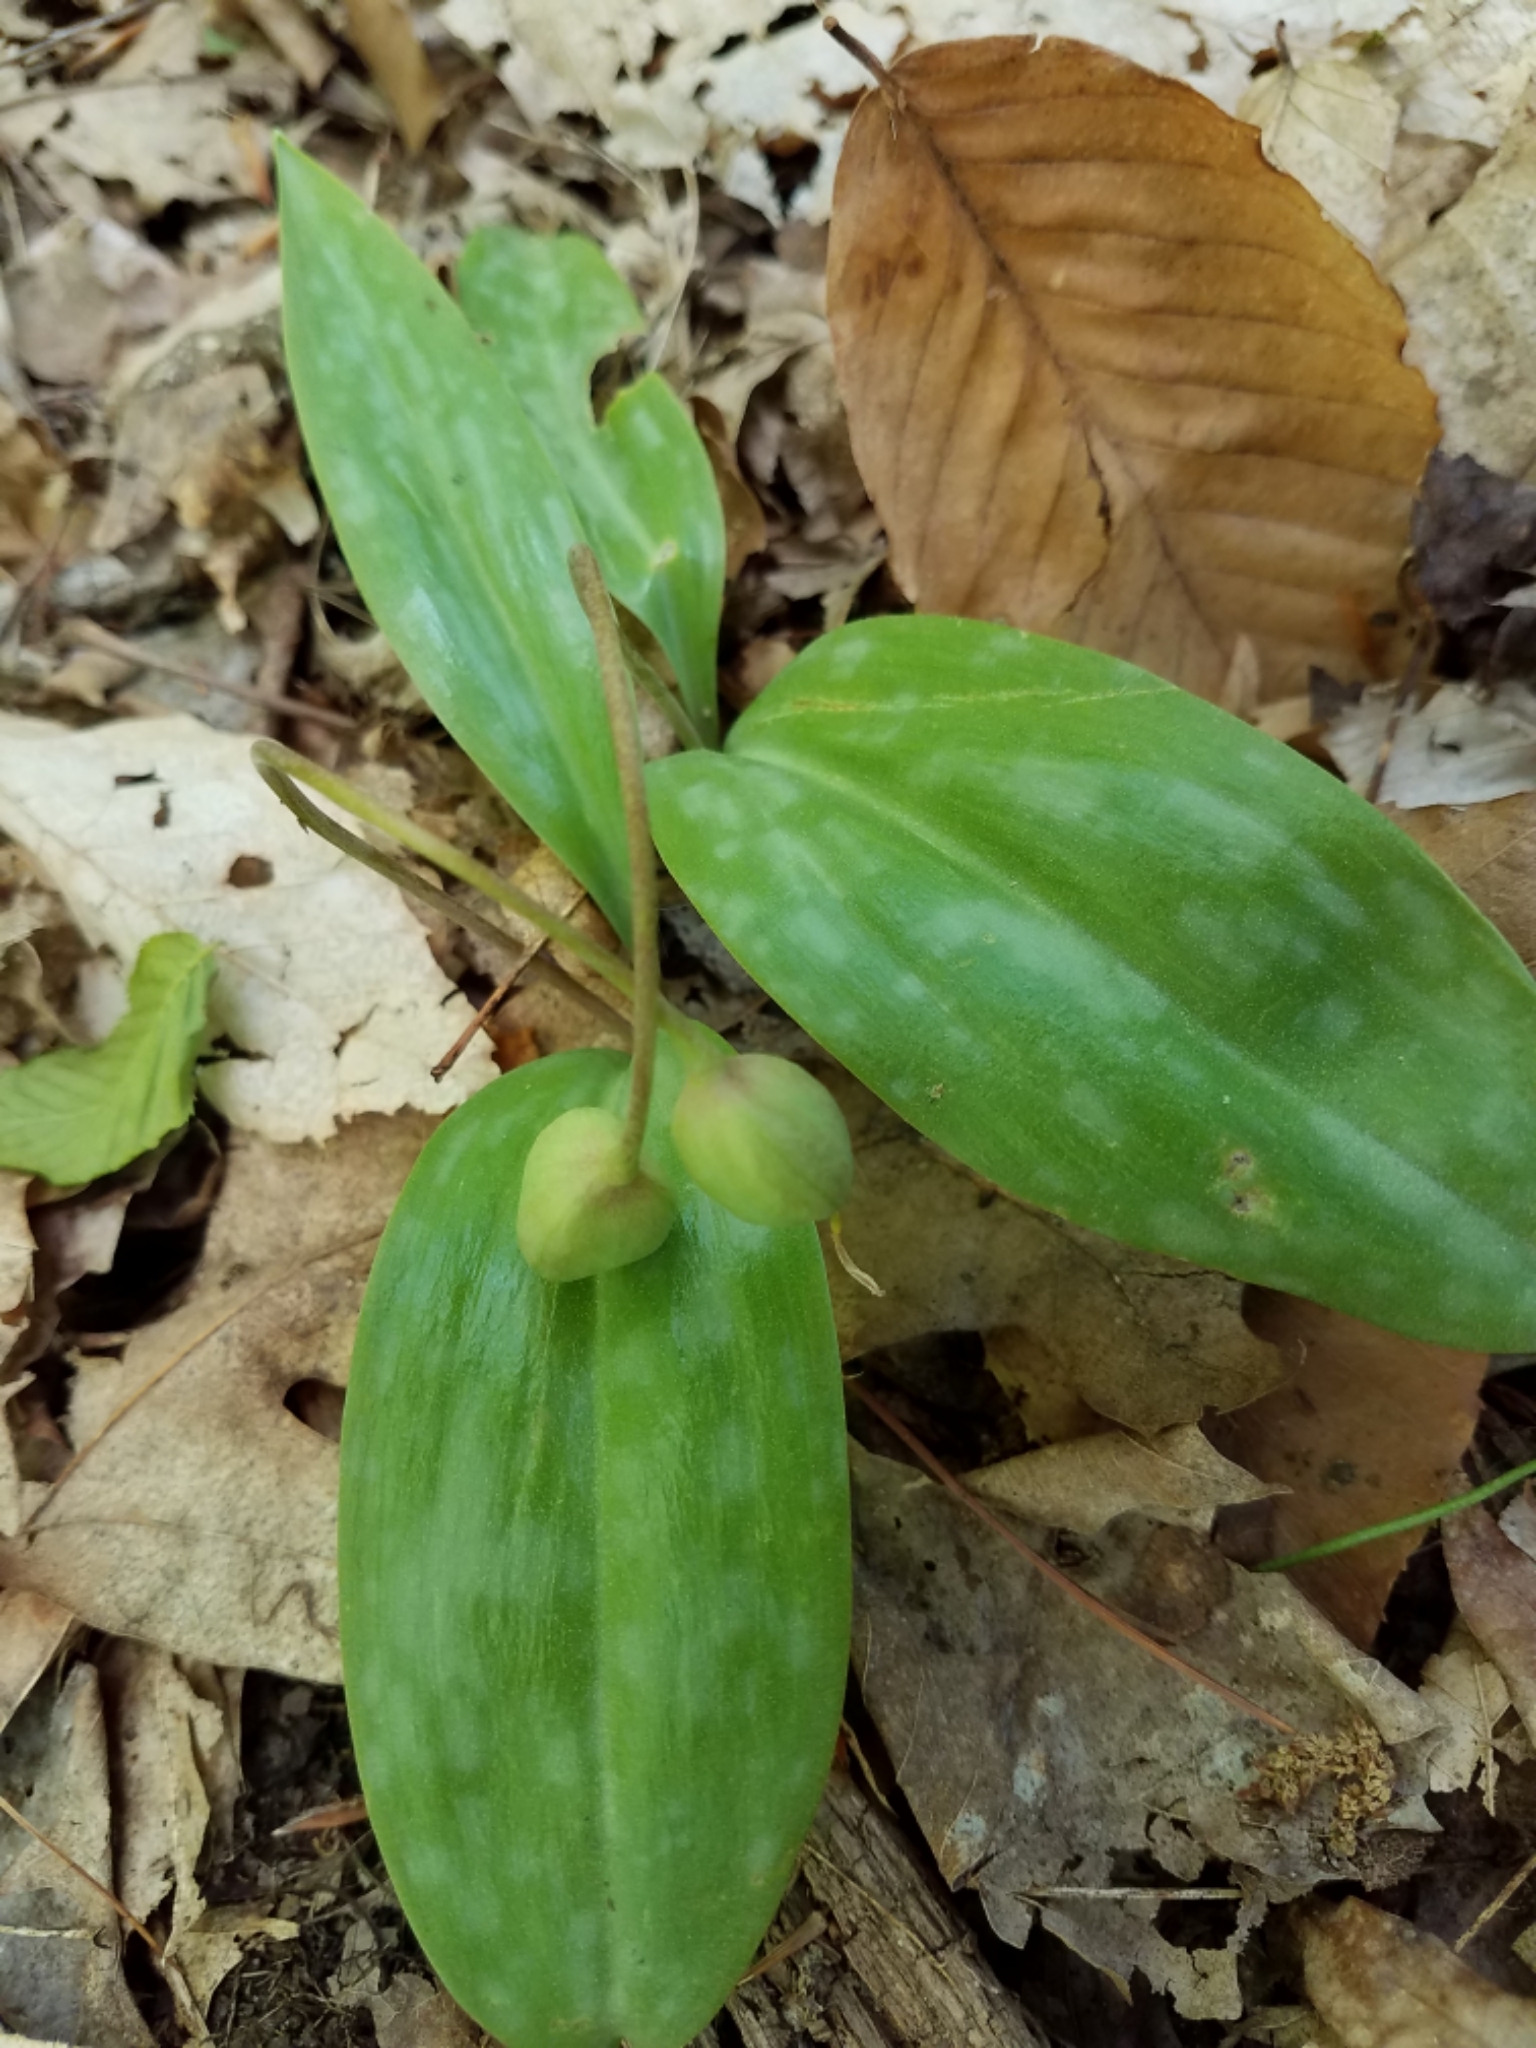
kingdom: Plantae
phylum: Tracheophyta
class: Liliopsida
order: Liliales
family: Liliaceae
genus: Erythronium
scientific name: Erythronium americanum
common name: Yellow adder's-tongue
